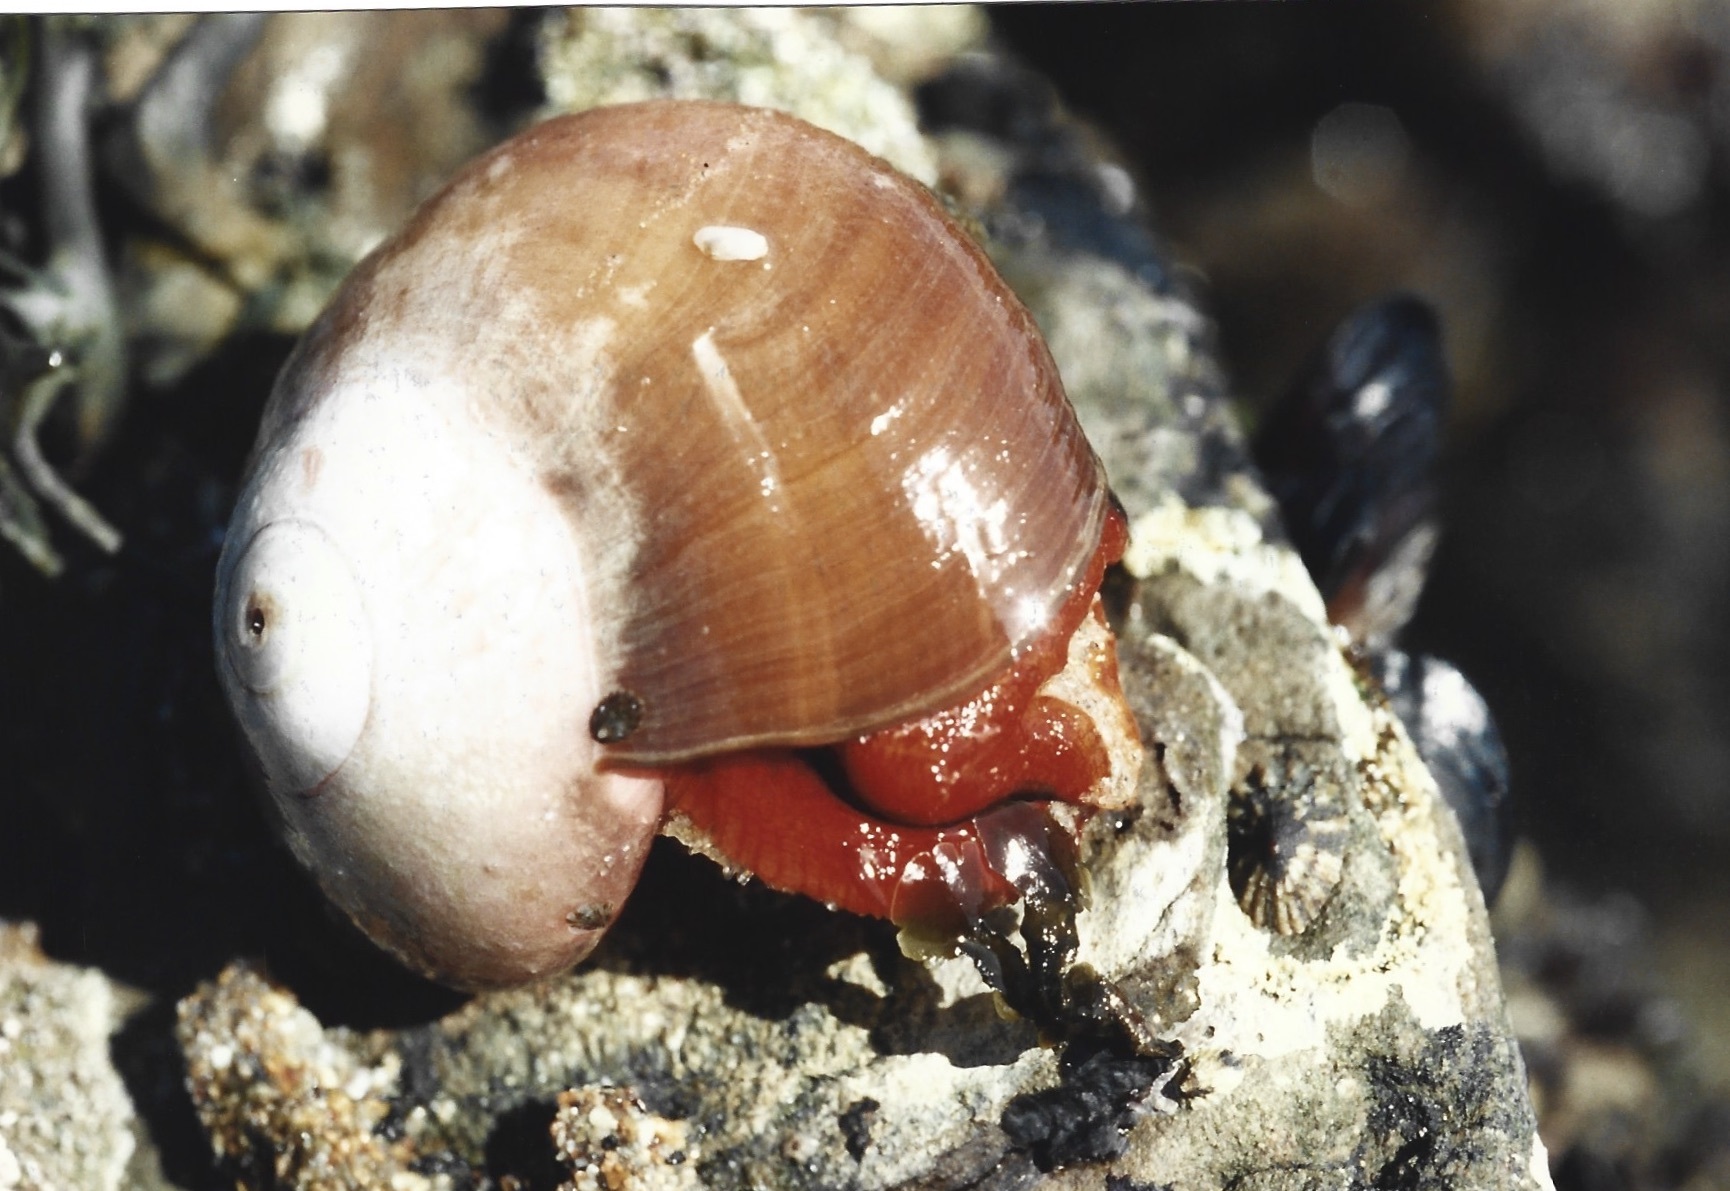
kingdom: Animalia
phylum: Mollusca
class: Gastropoda
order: Trochida
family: Tegulidae
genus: Norrisia
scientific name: Norrisia norrisii
